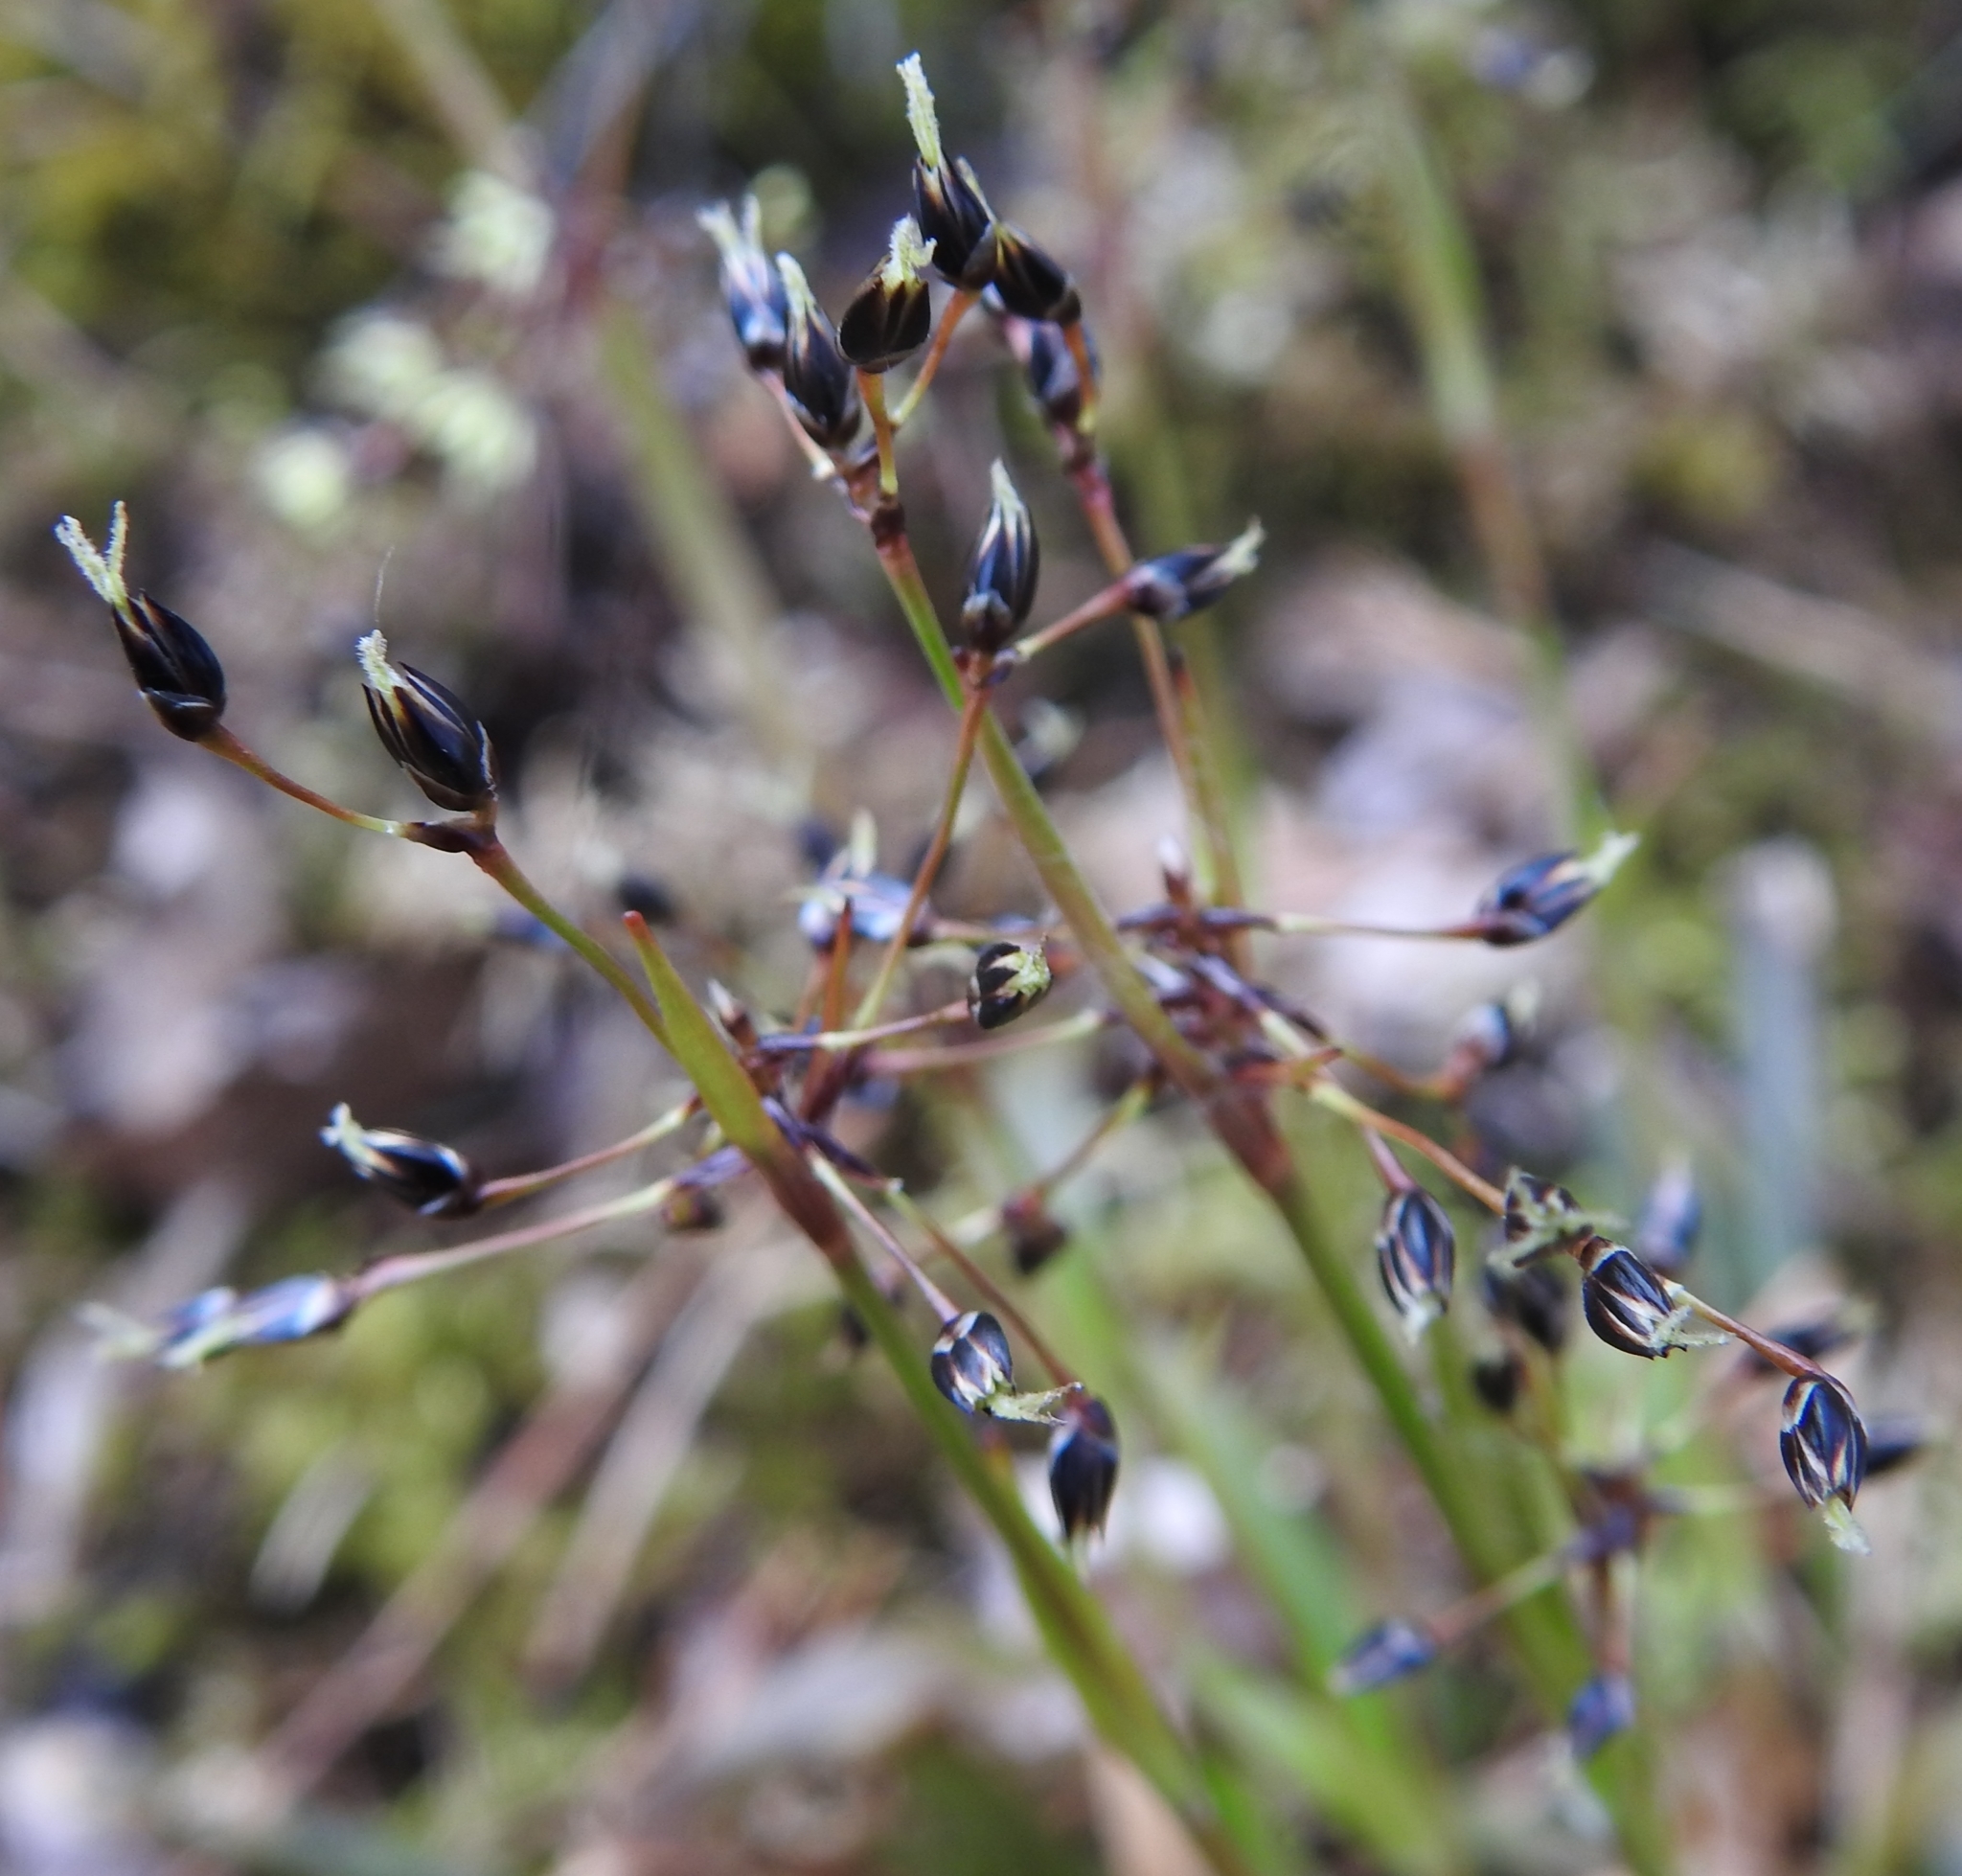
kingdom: Plantae
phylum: Tracheophyta
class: Liliopsida
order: Poales
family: Juncaceae
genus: Luzula
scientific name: Luzula pilosa
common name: Hairy wood-rush
